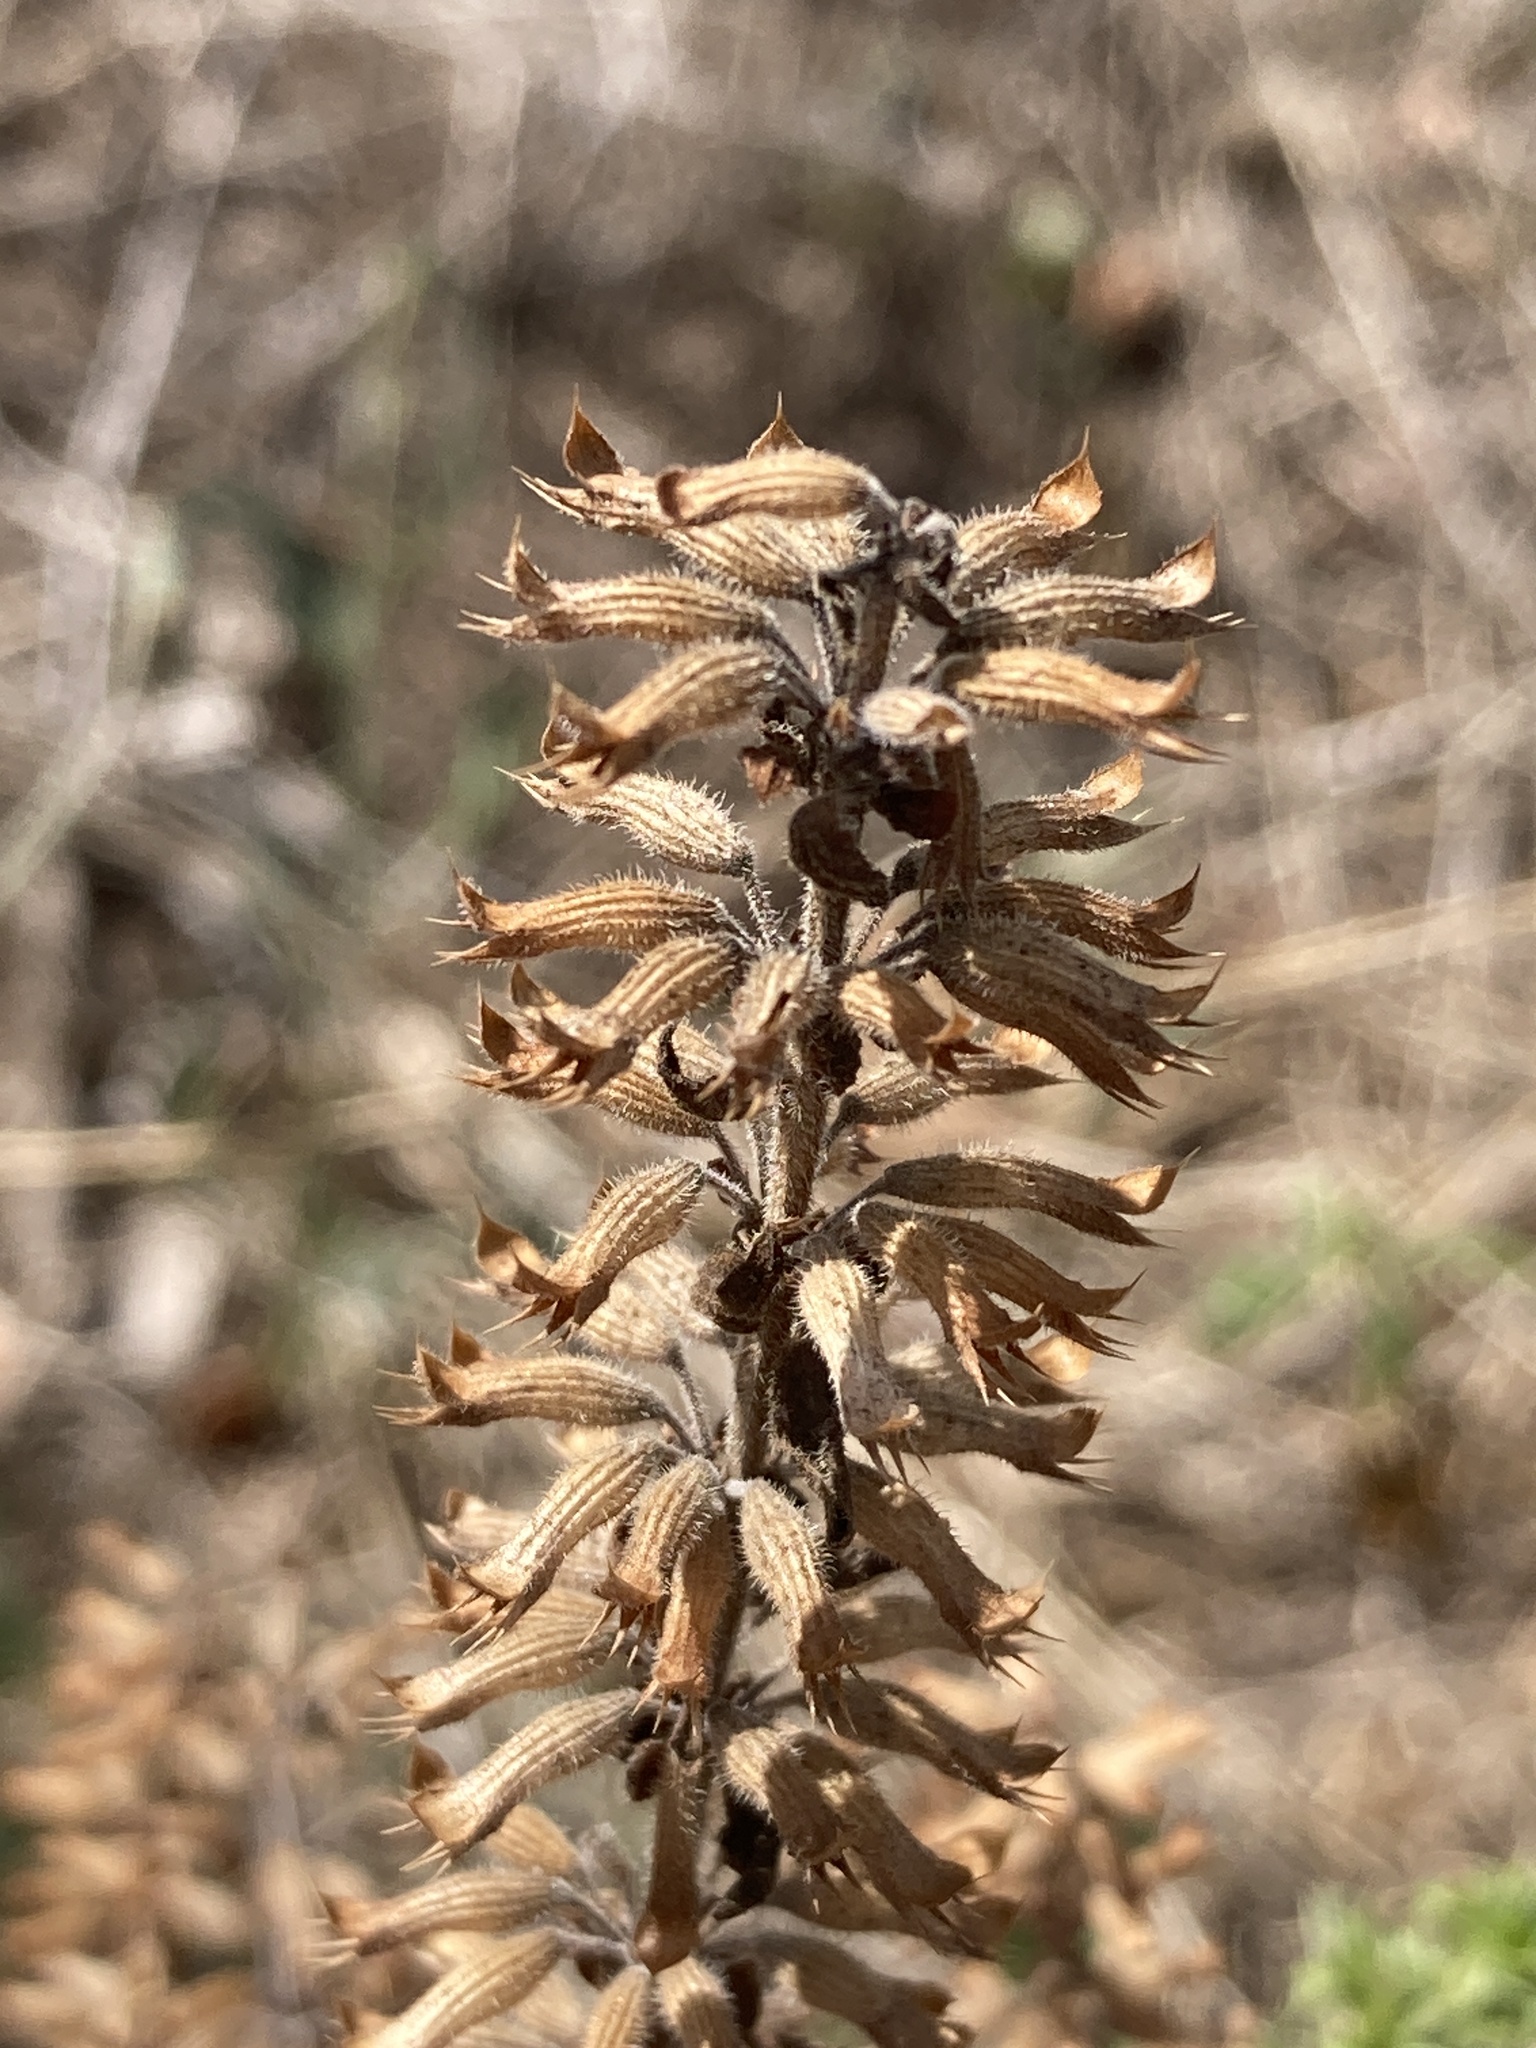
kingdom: Plantae
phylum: Tracheophyta
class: Magnoliopsida
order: Lamiales
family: Lamiaceae
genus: Dracocephalum
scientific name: Dracocephalum thymiflorum
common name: Thymeleaf dragonhead
